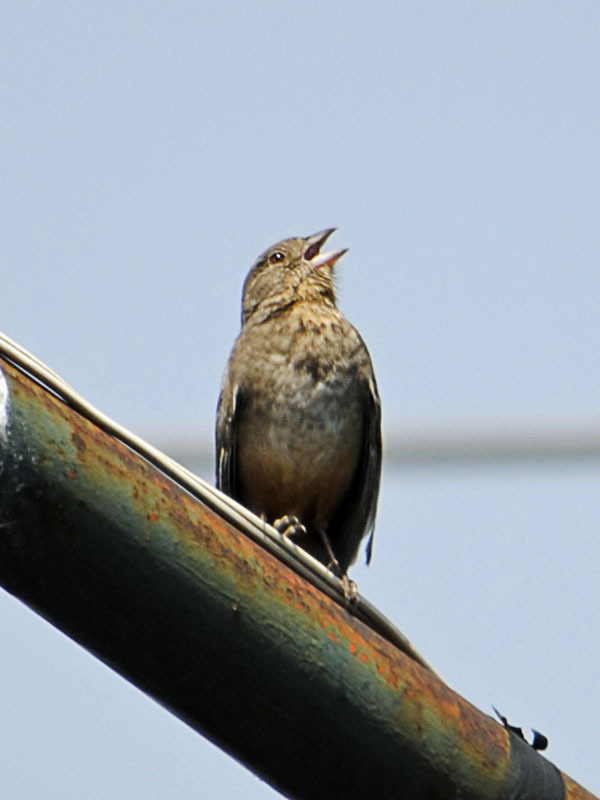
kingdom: Animalia
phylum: Chordata
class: Aves
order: Passeriformes
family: Passerellidae
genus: Melozone
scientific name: Melozone fusca
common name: Canyon towhee
